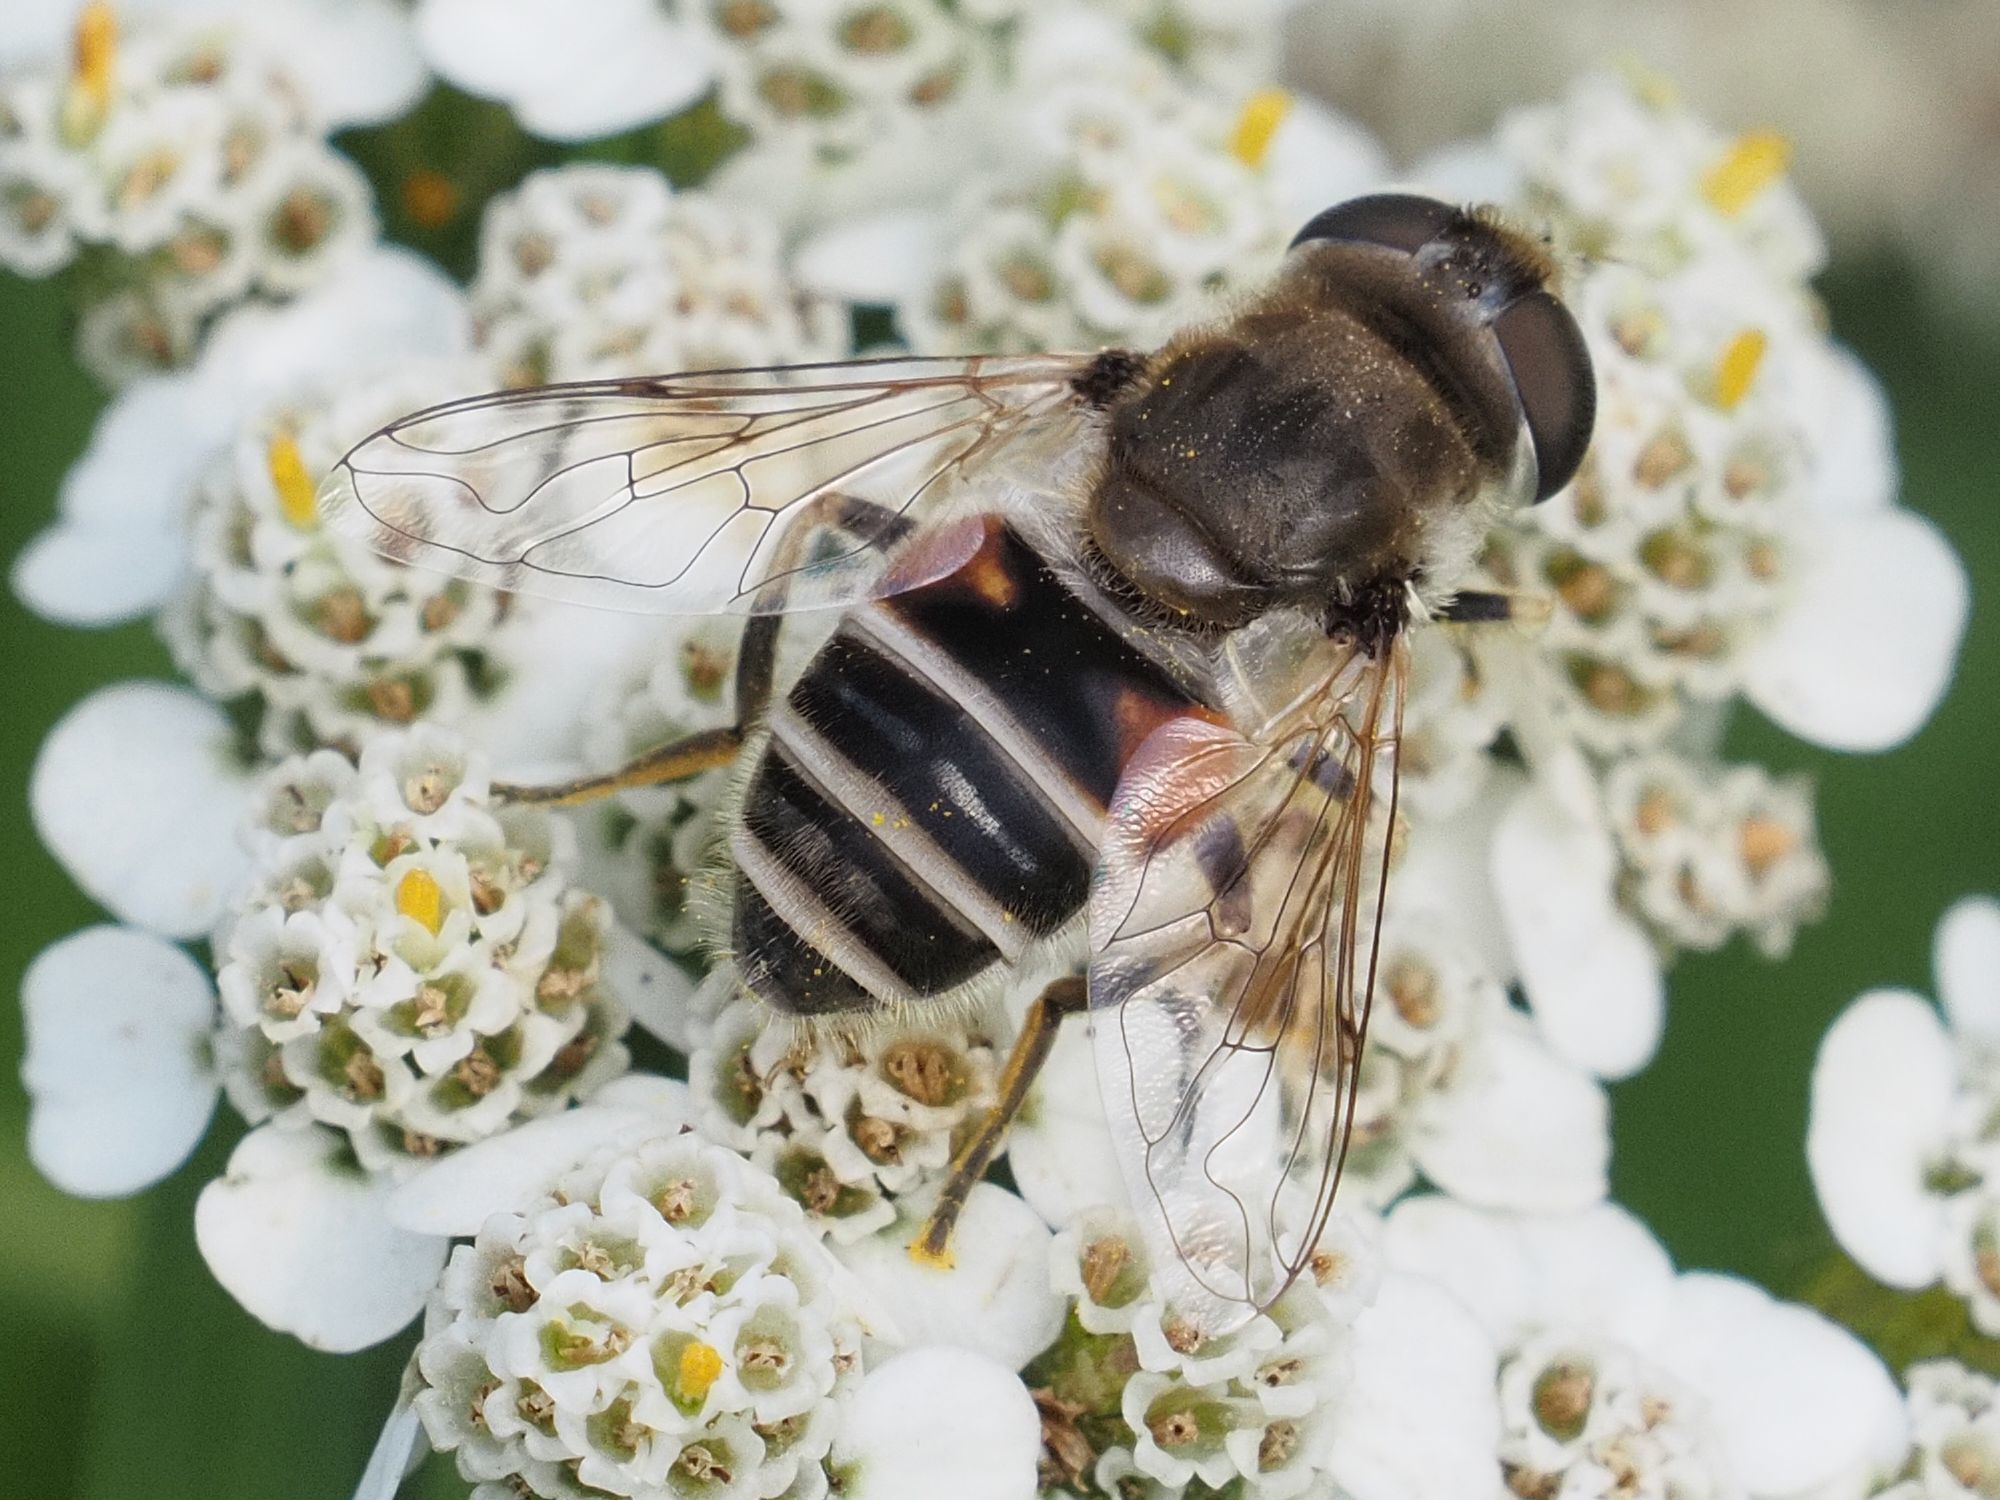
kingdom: Animalia
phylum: Arthropoda
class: Insecta
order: Diptera
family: Syrphidae
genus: Eristalis
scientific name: Eristalis arbustorum
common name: Hover fly
